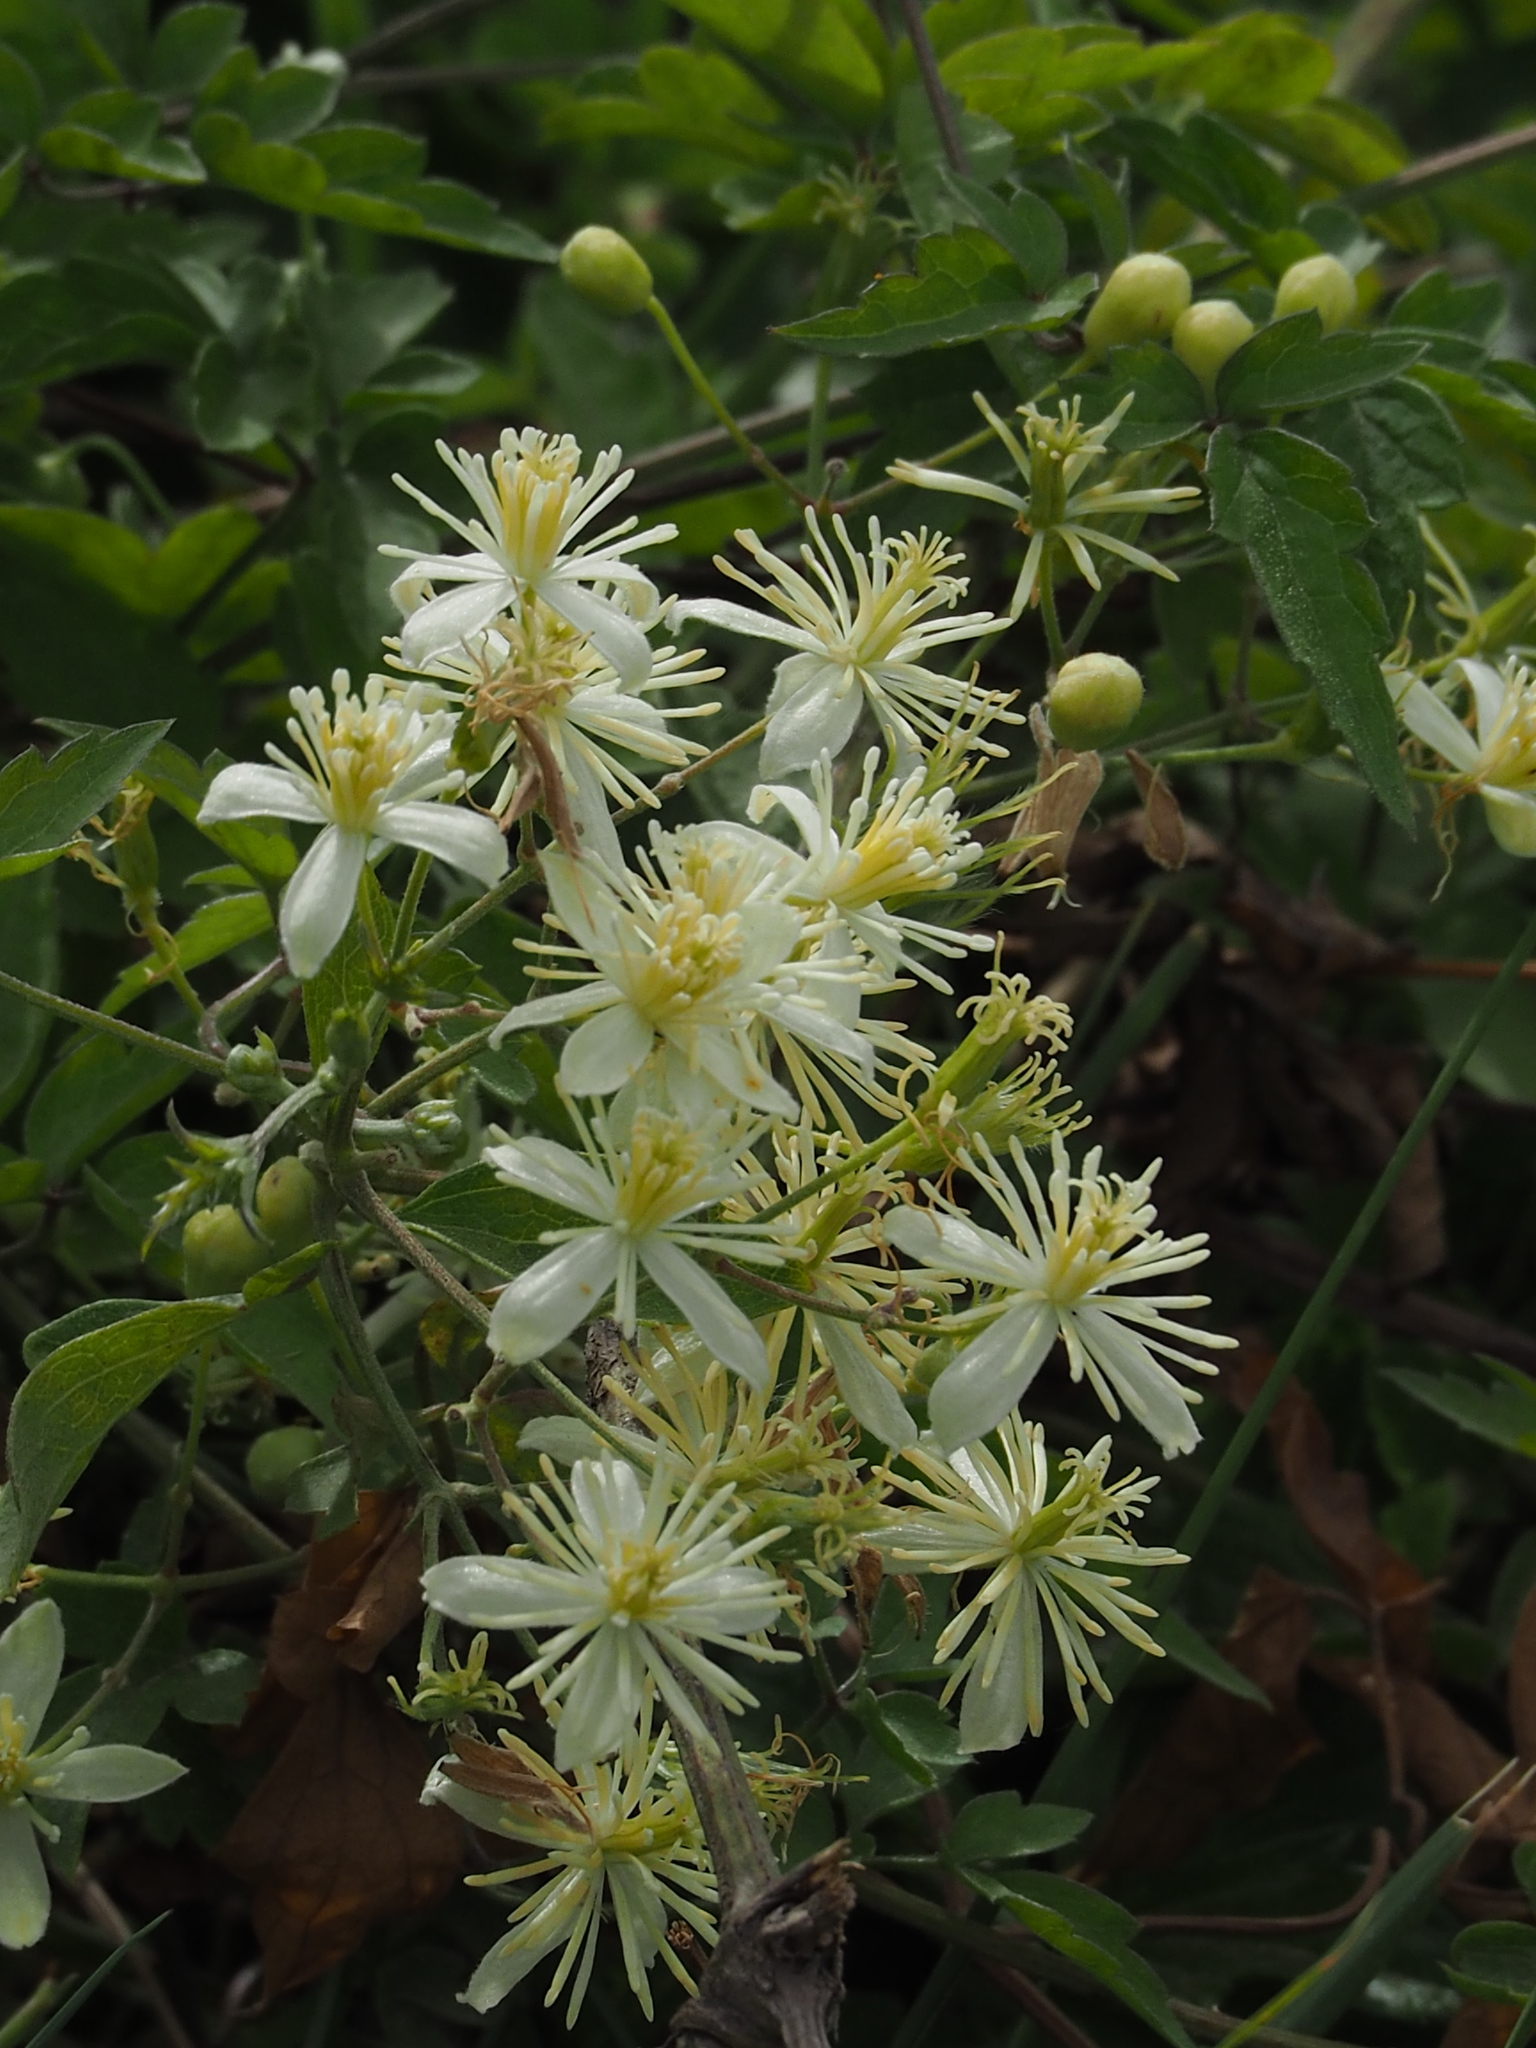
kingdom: Plantae
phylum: Tracheophyta
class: Magnoliopsida
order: Ranunculales
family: Ranunculaceae
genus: Clematis
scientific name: Clematis grata
